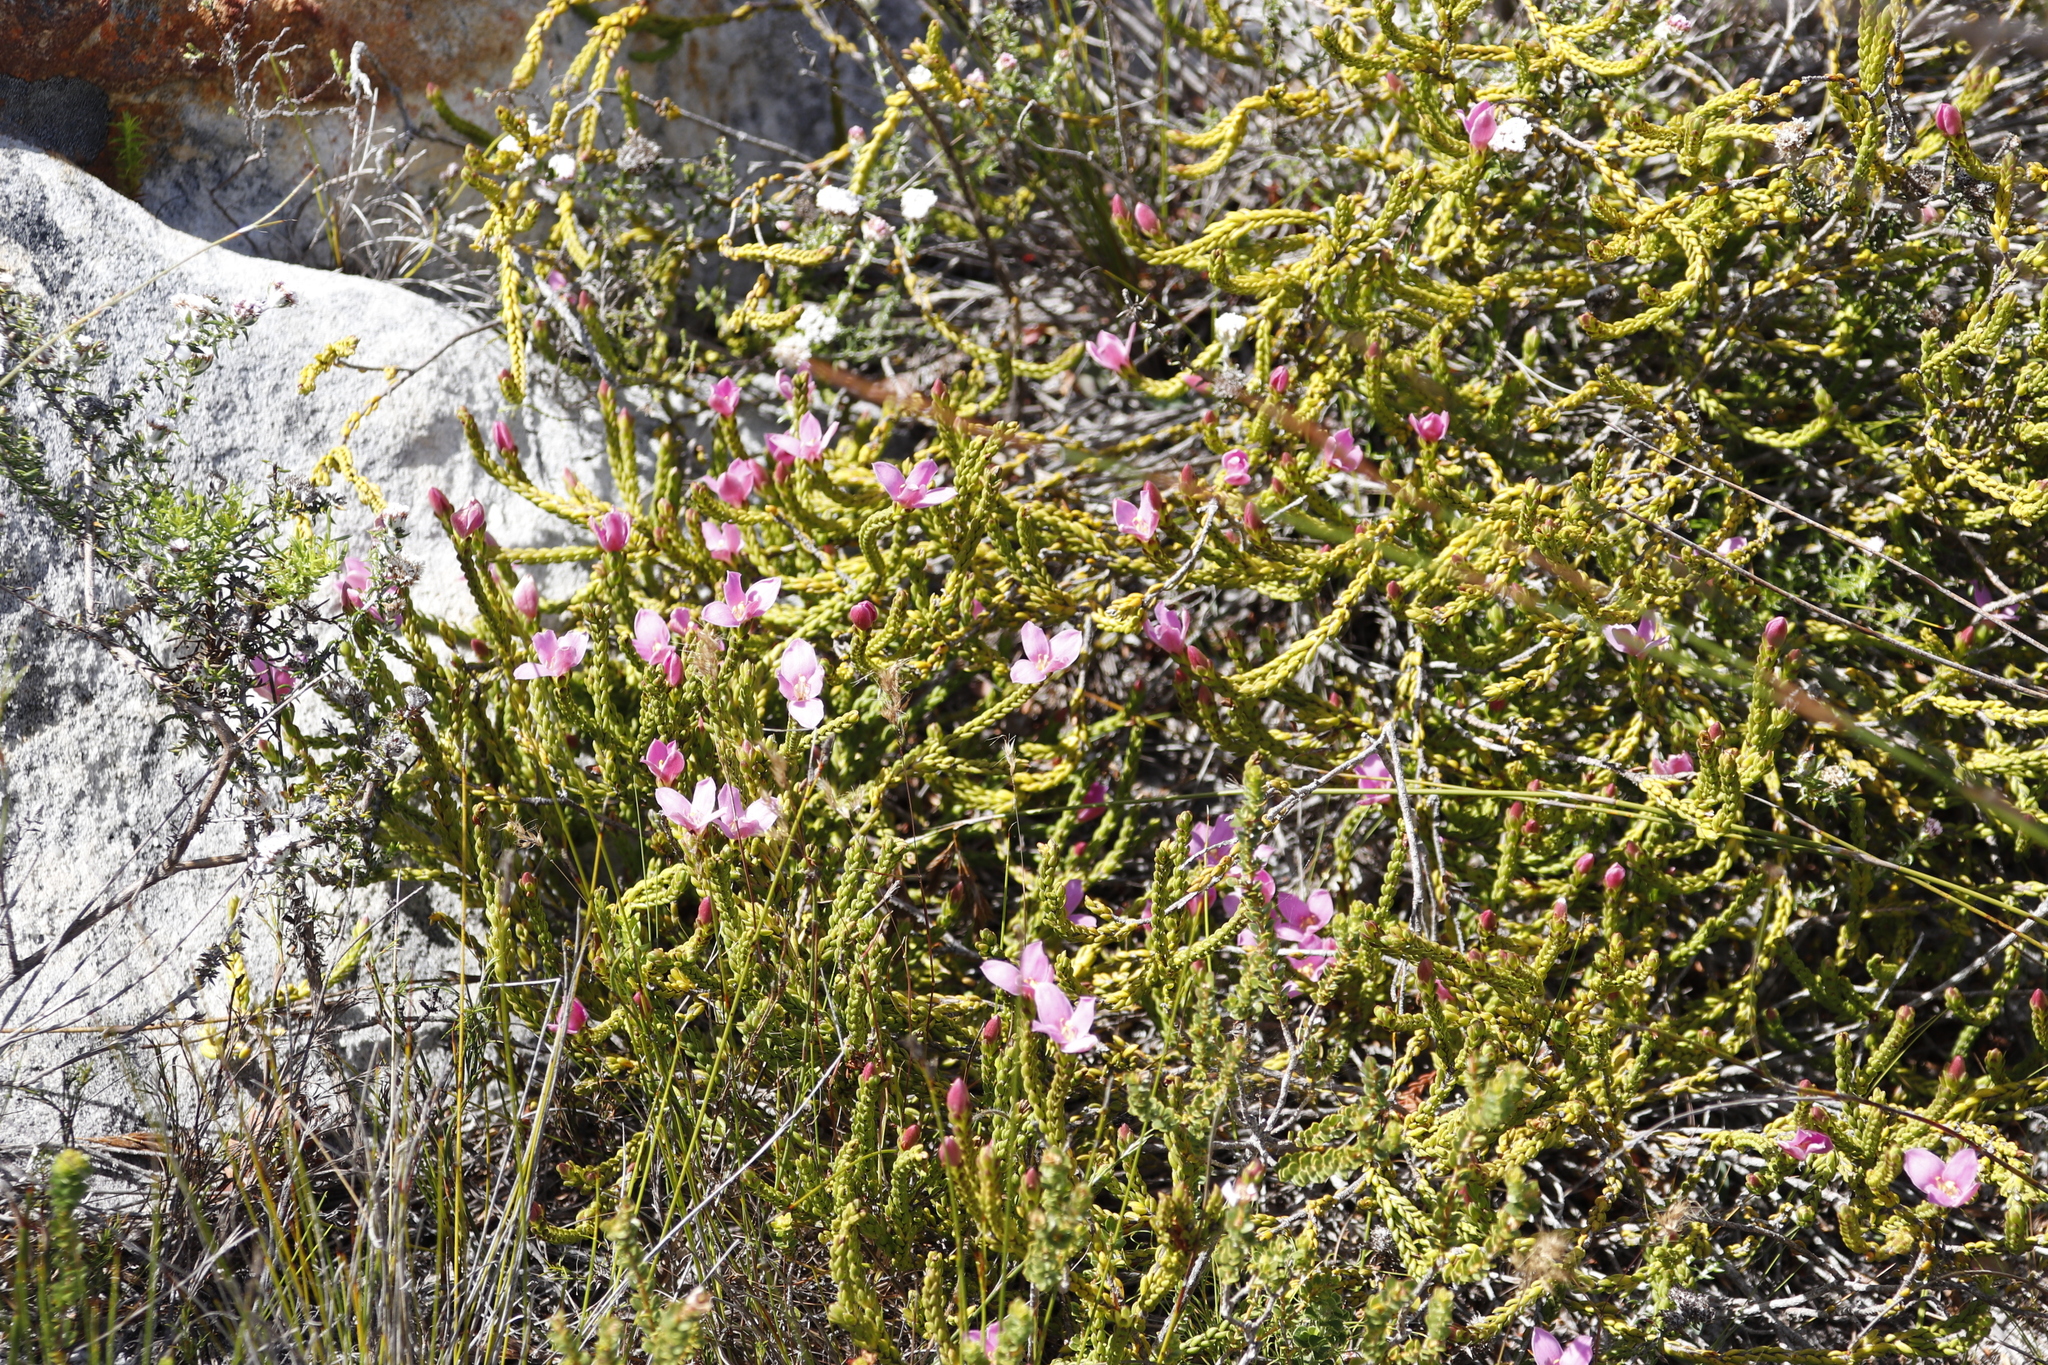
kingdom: Plantae
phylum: Tracheophyta
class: Magnoliopsida
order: Malvales
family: Thymelaeaceae
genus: Lachnaea
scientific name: Lachnaea grandiflora
